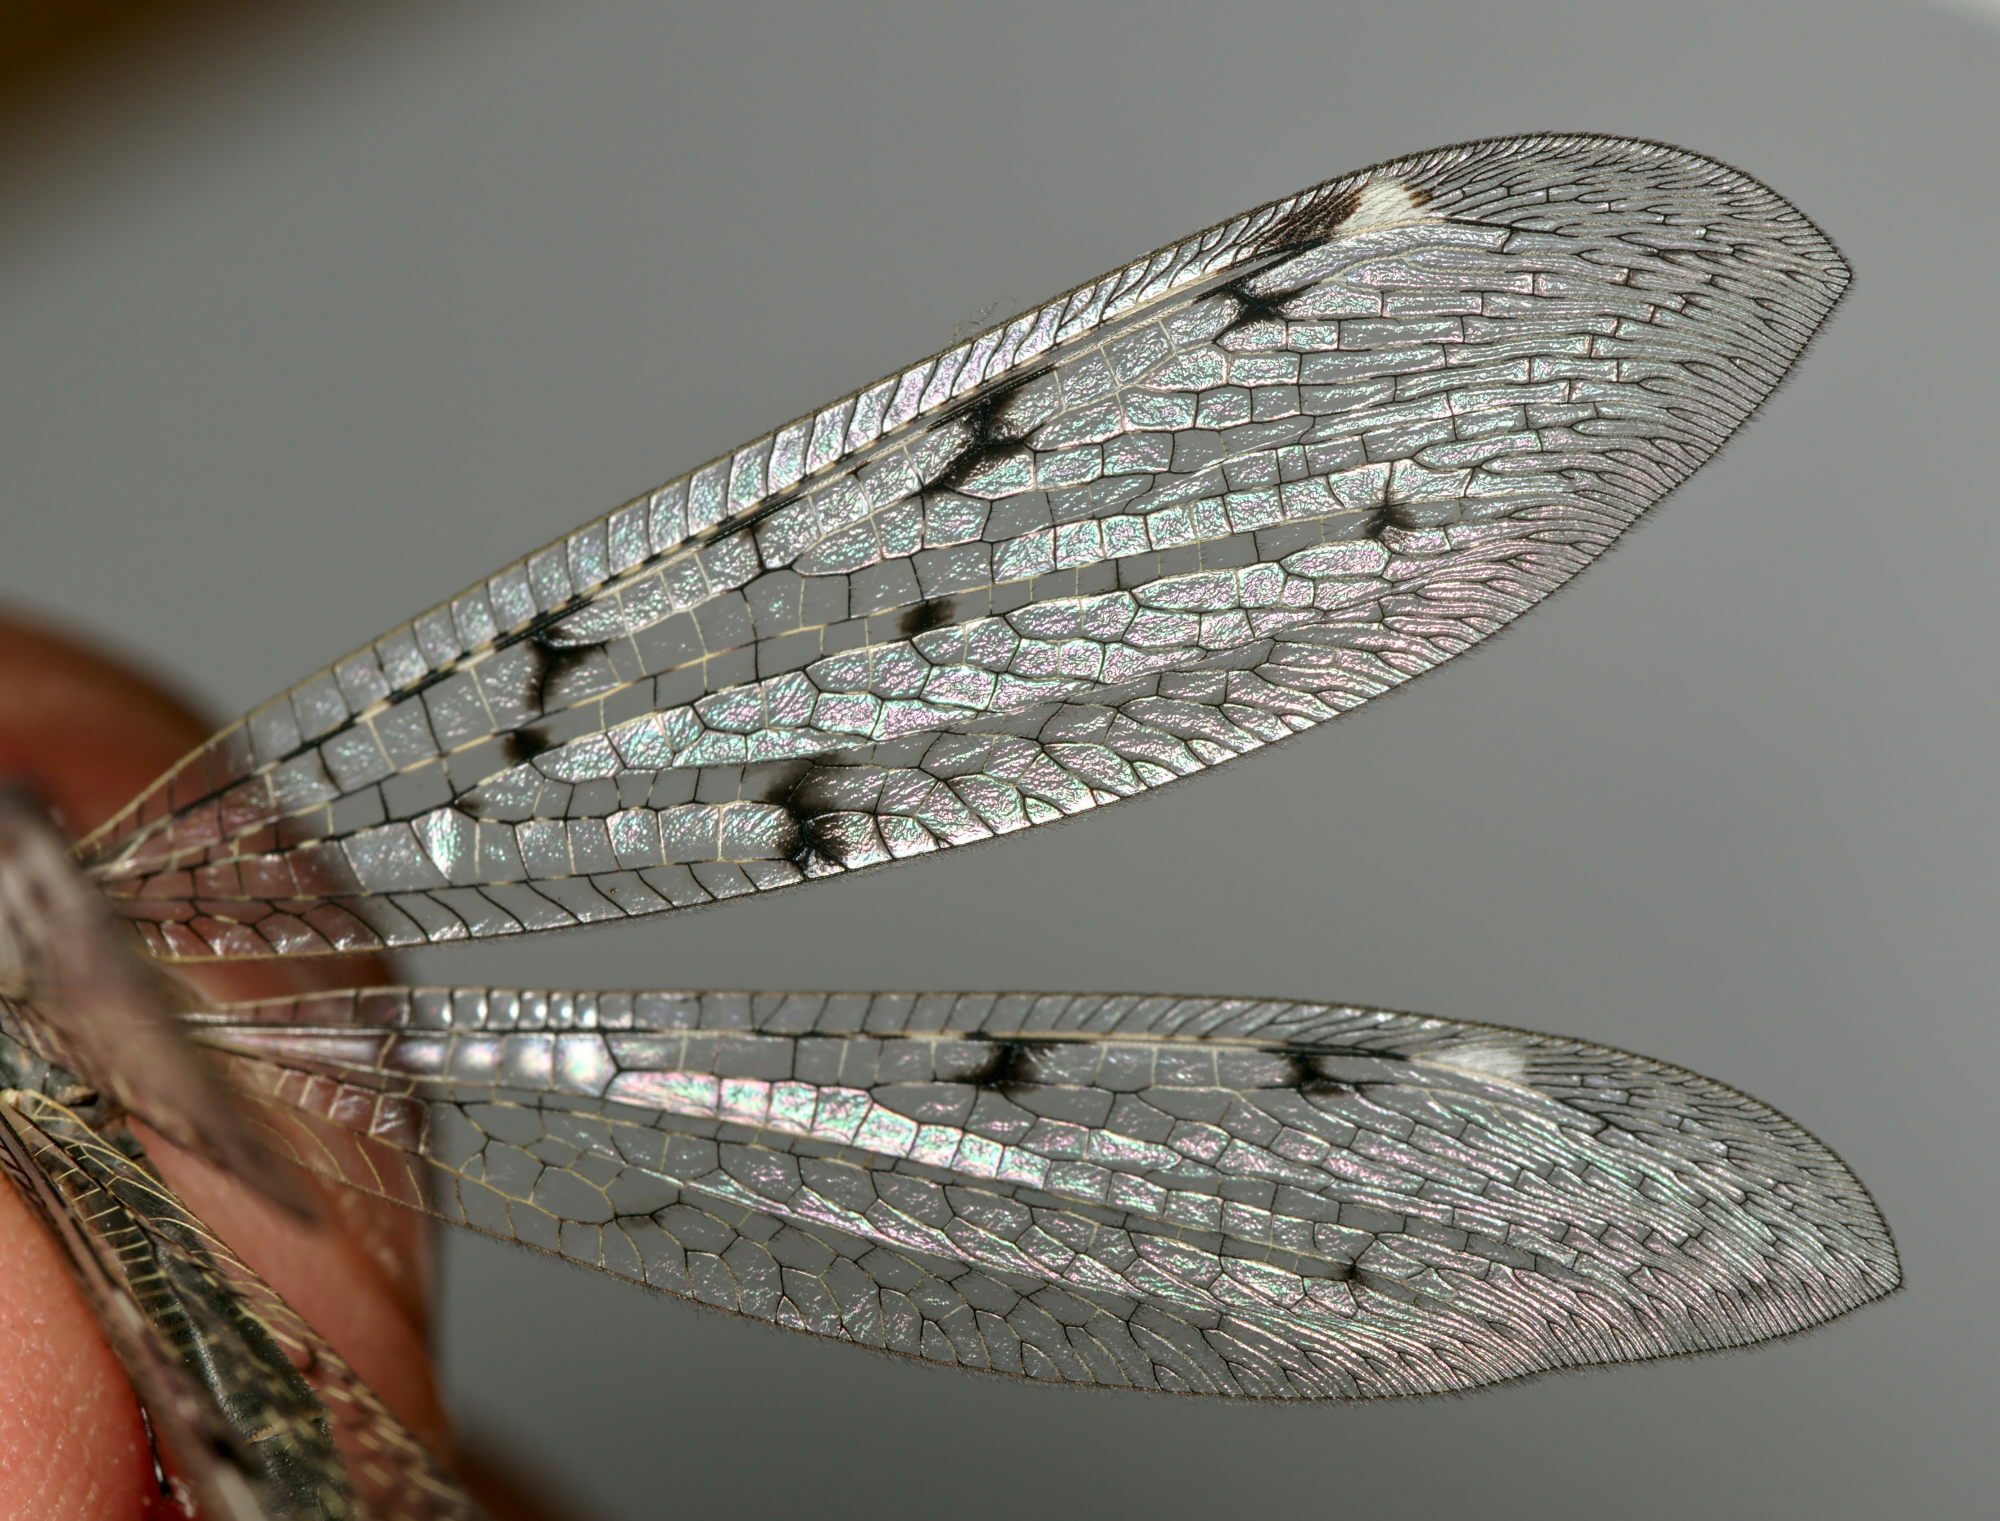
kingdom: Animalia
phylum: Arthropoda
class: Insecta
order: Neuroptera
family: Myrmeleontidae
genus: Euroleon
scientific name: Euroleon nostras
